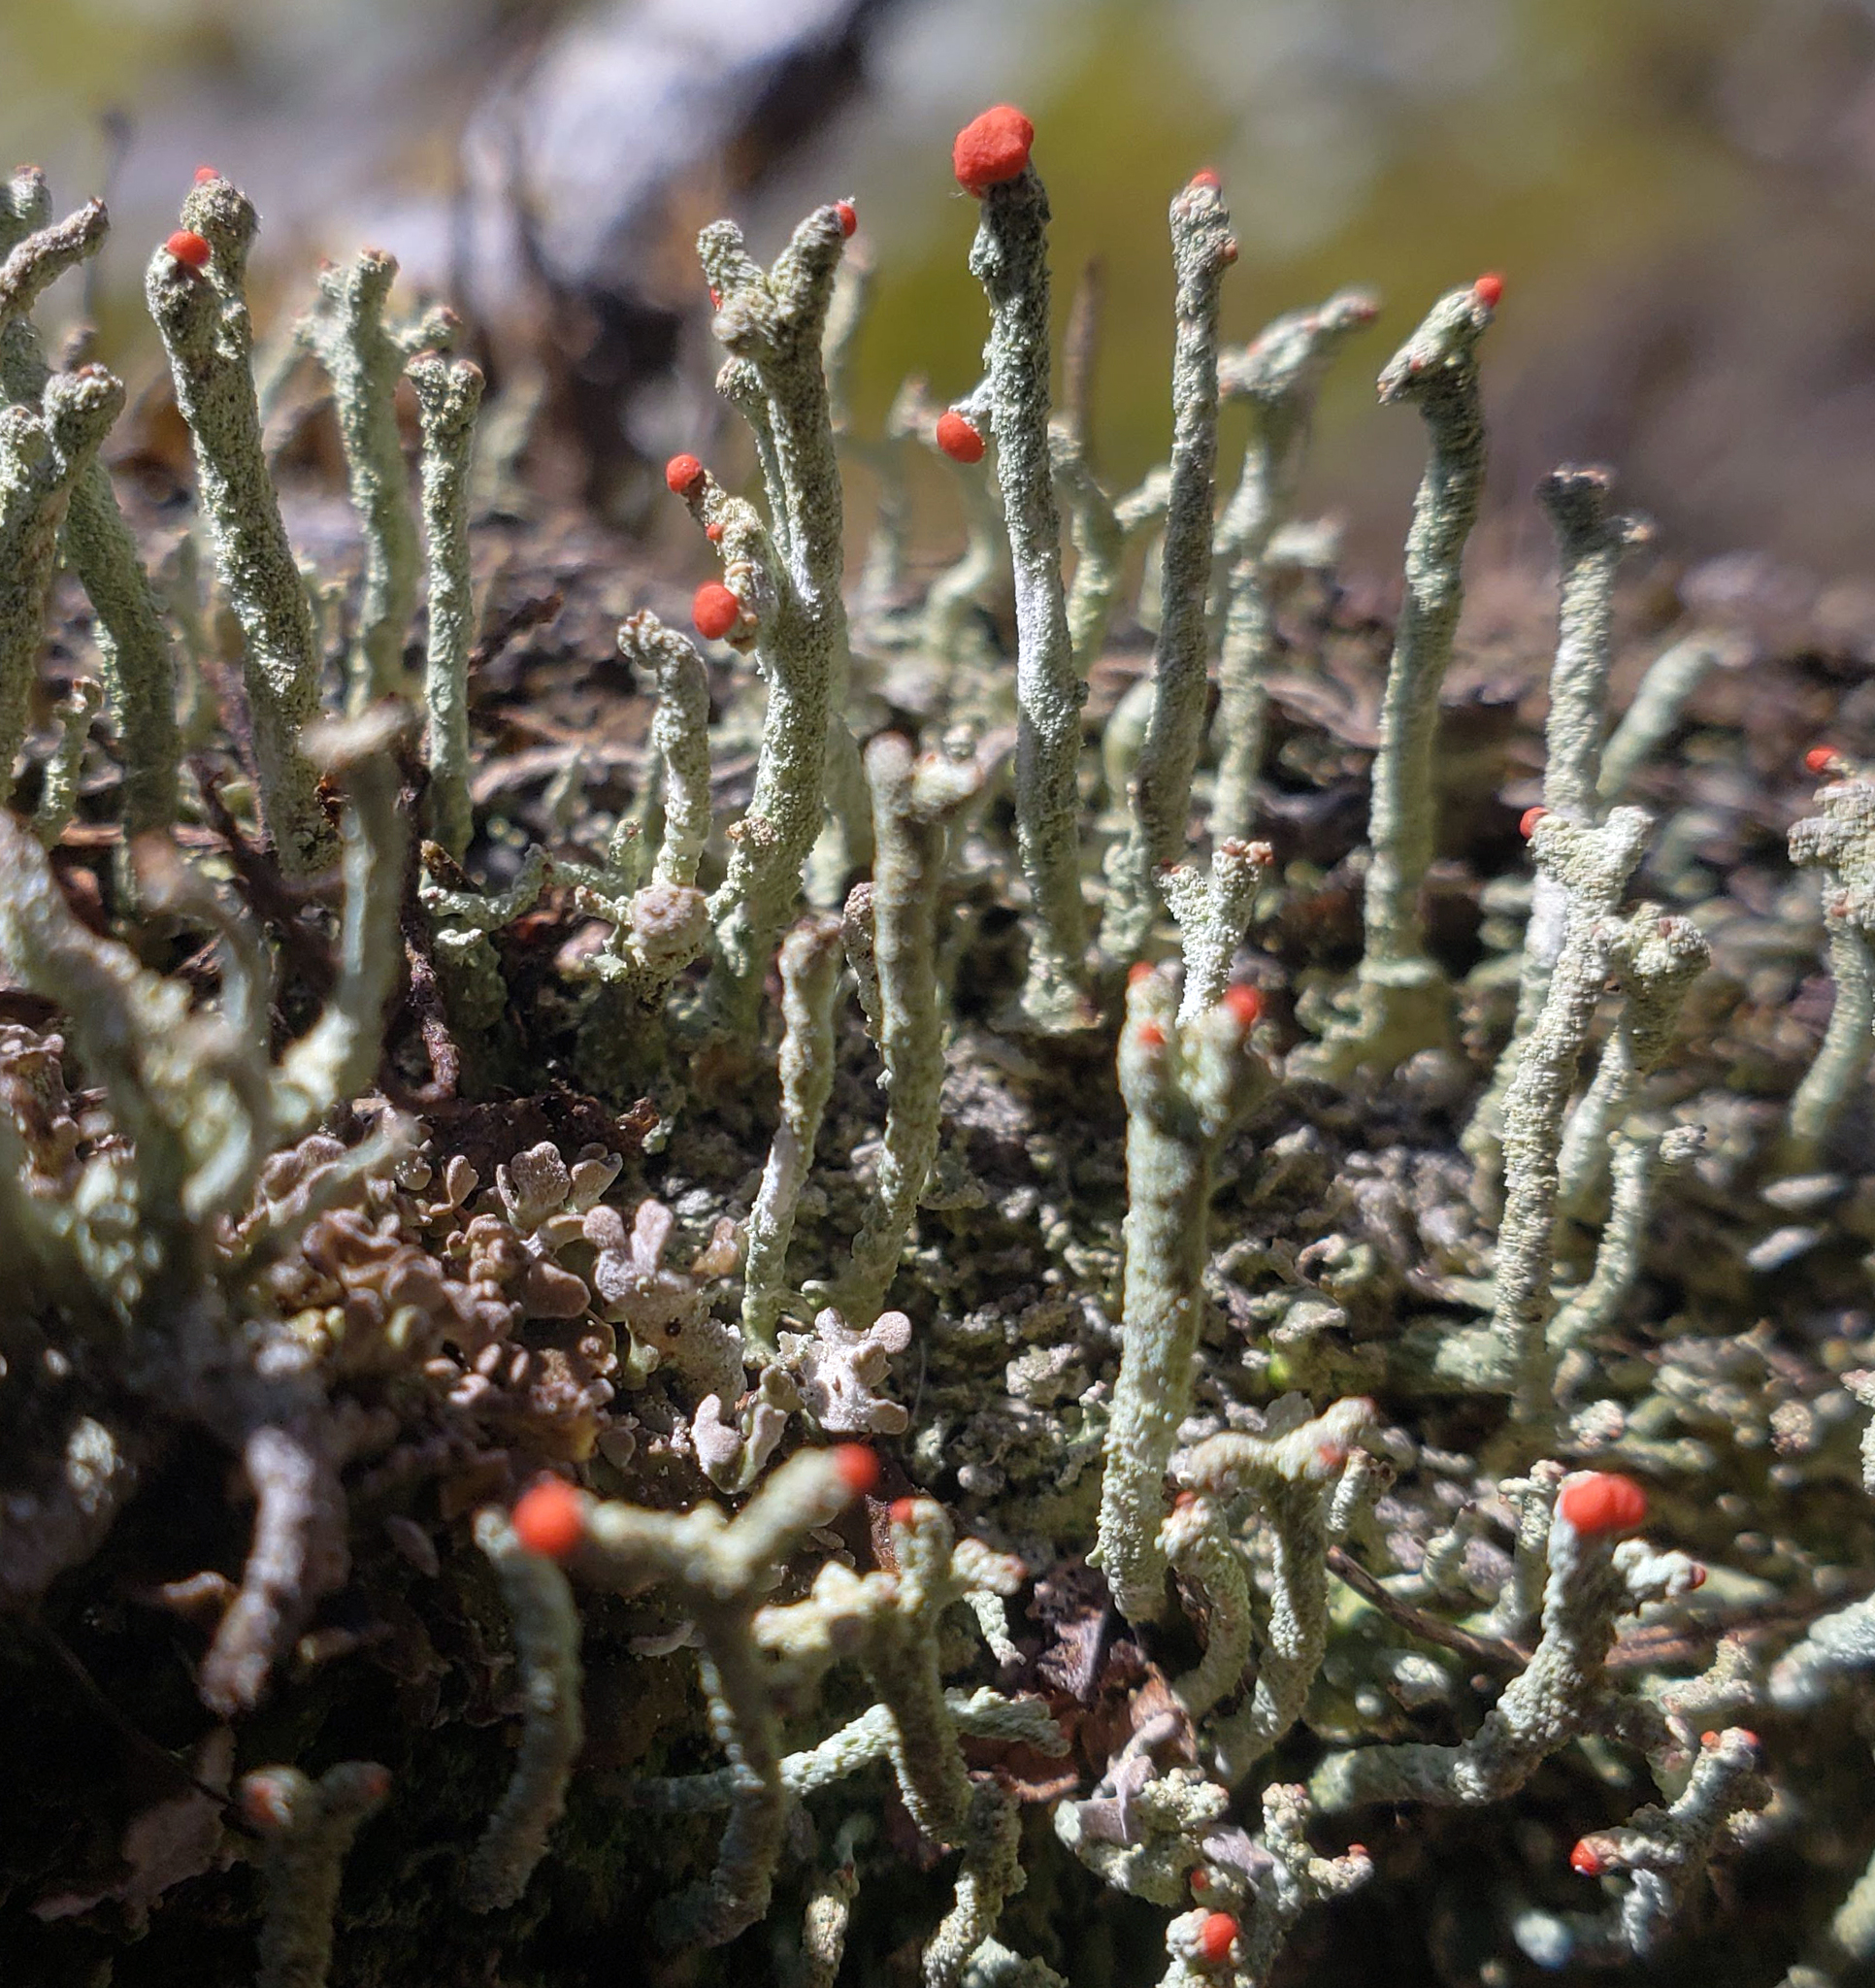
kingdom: Fungi
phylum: Ascomycota
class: Lecanoromycetes
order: Lecanorales
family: Cladoniaceae
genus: Cladonia
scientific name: Cladonia macilenta
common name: Lipstick powderhorn
